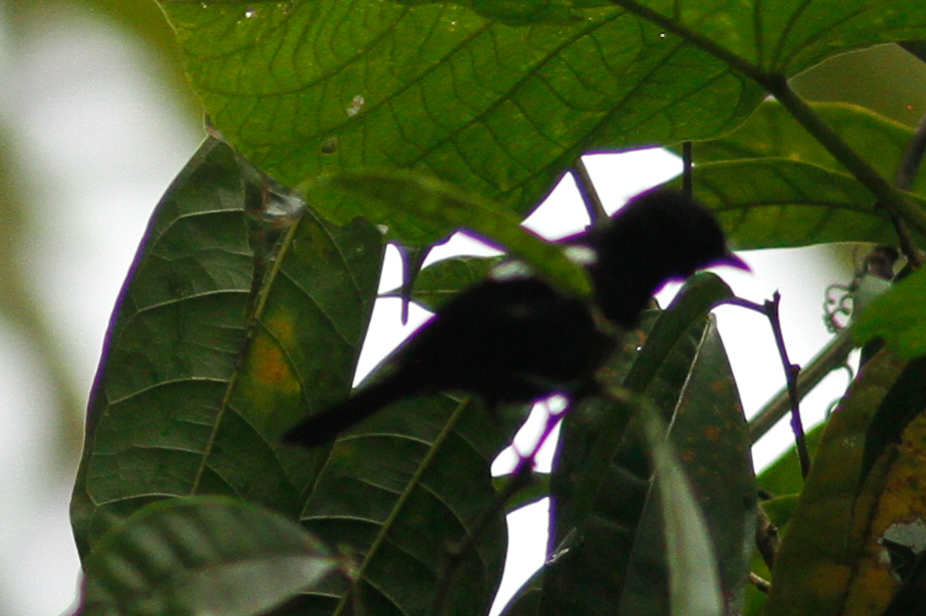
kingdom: Animalia
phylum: Chordata
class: Aves
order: Passeriformes
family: Thraupidae
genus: Loriotus
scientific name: Loriotus luctuosus
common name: White-shouldered tanager
